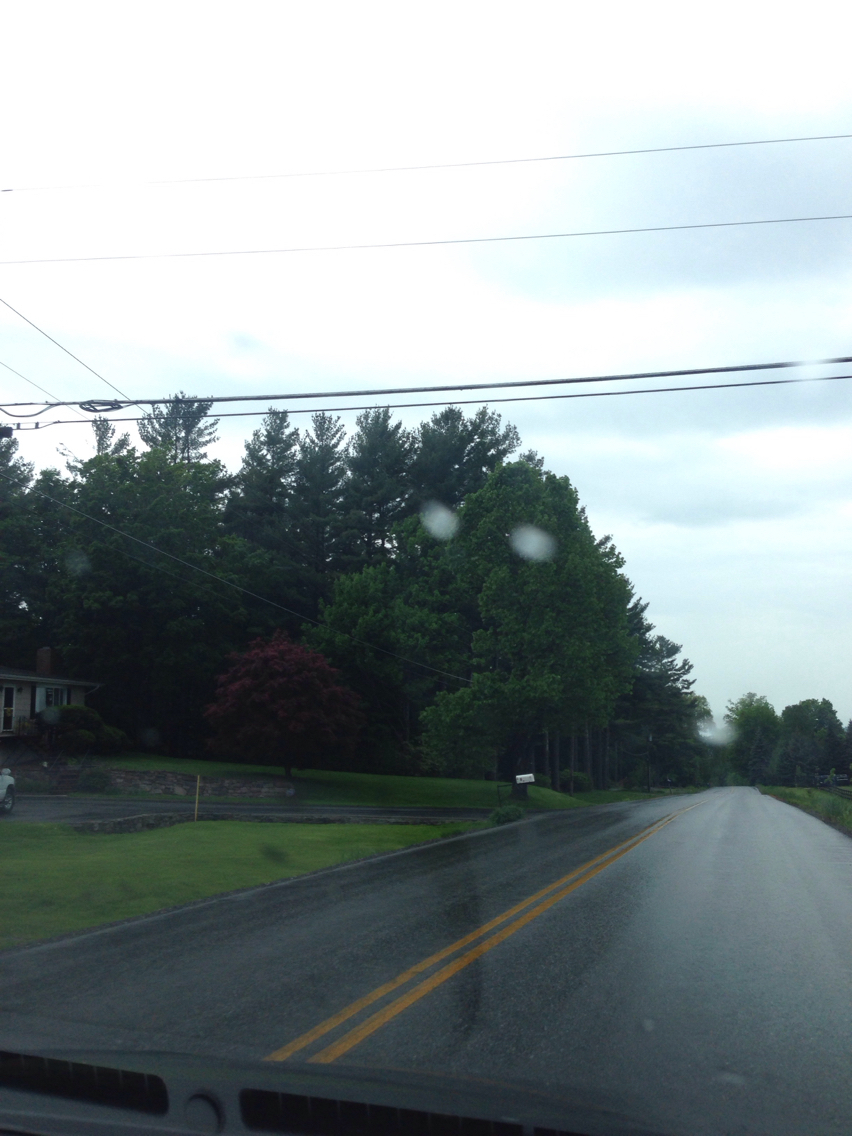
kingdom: Plantae
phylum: Tracheophyta
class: Pinopsida
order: Pinales
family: Pinaceae
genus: Pinus
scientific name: Pinus strobus
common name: Weymouth pine
